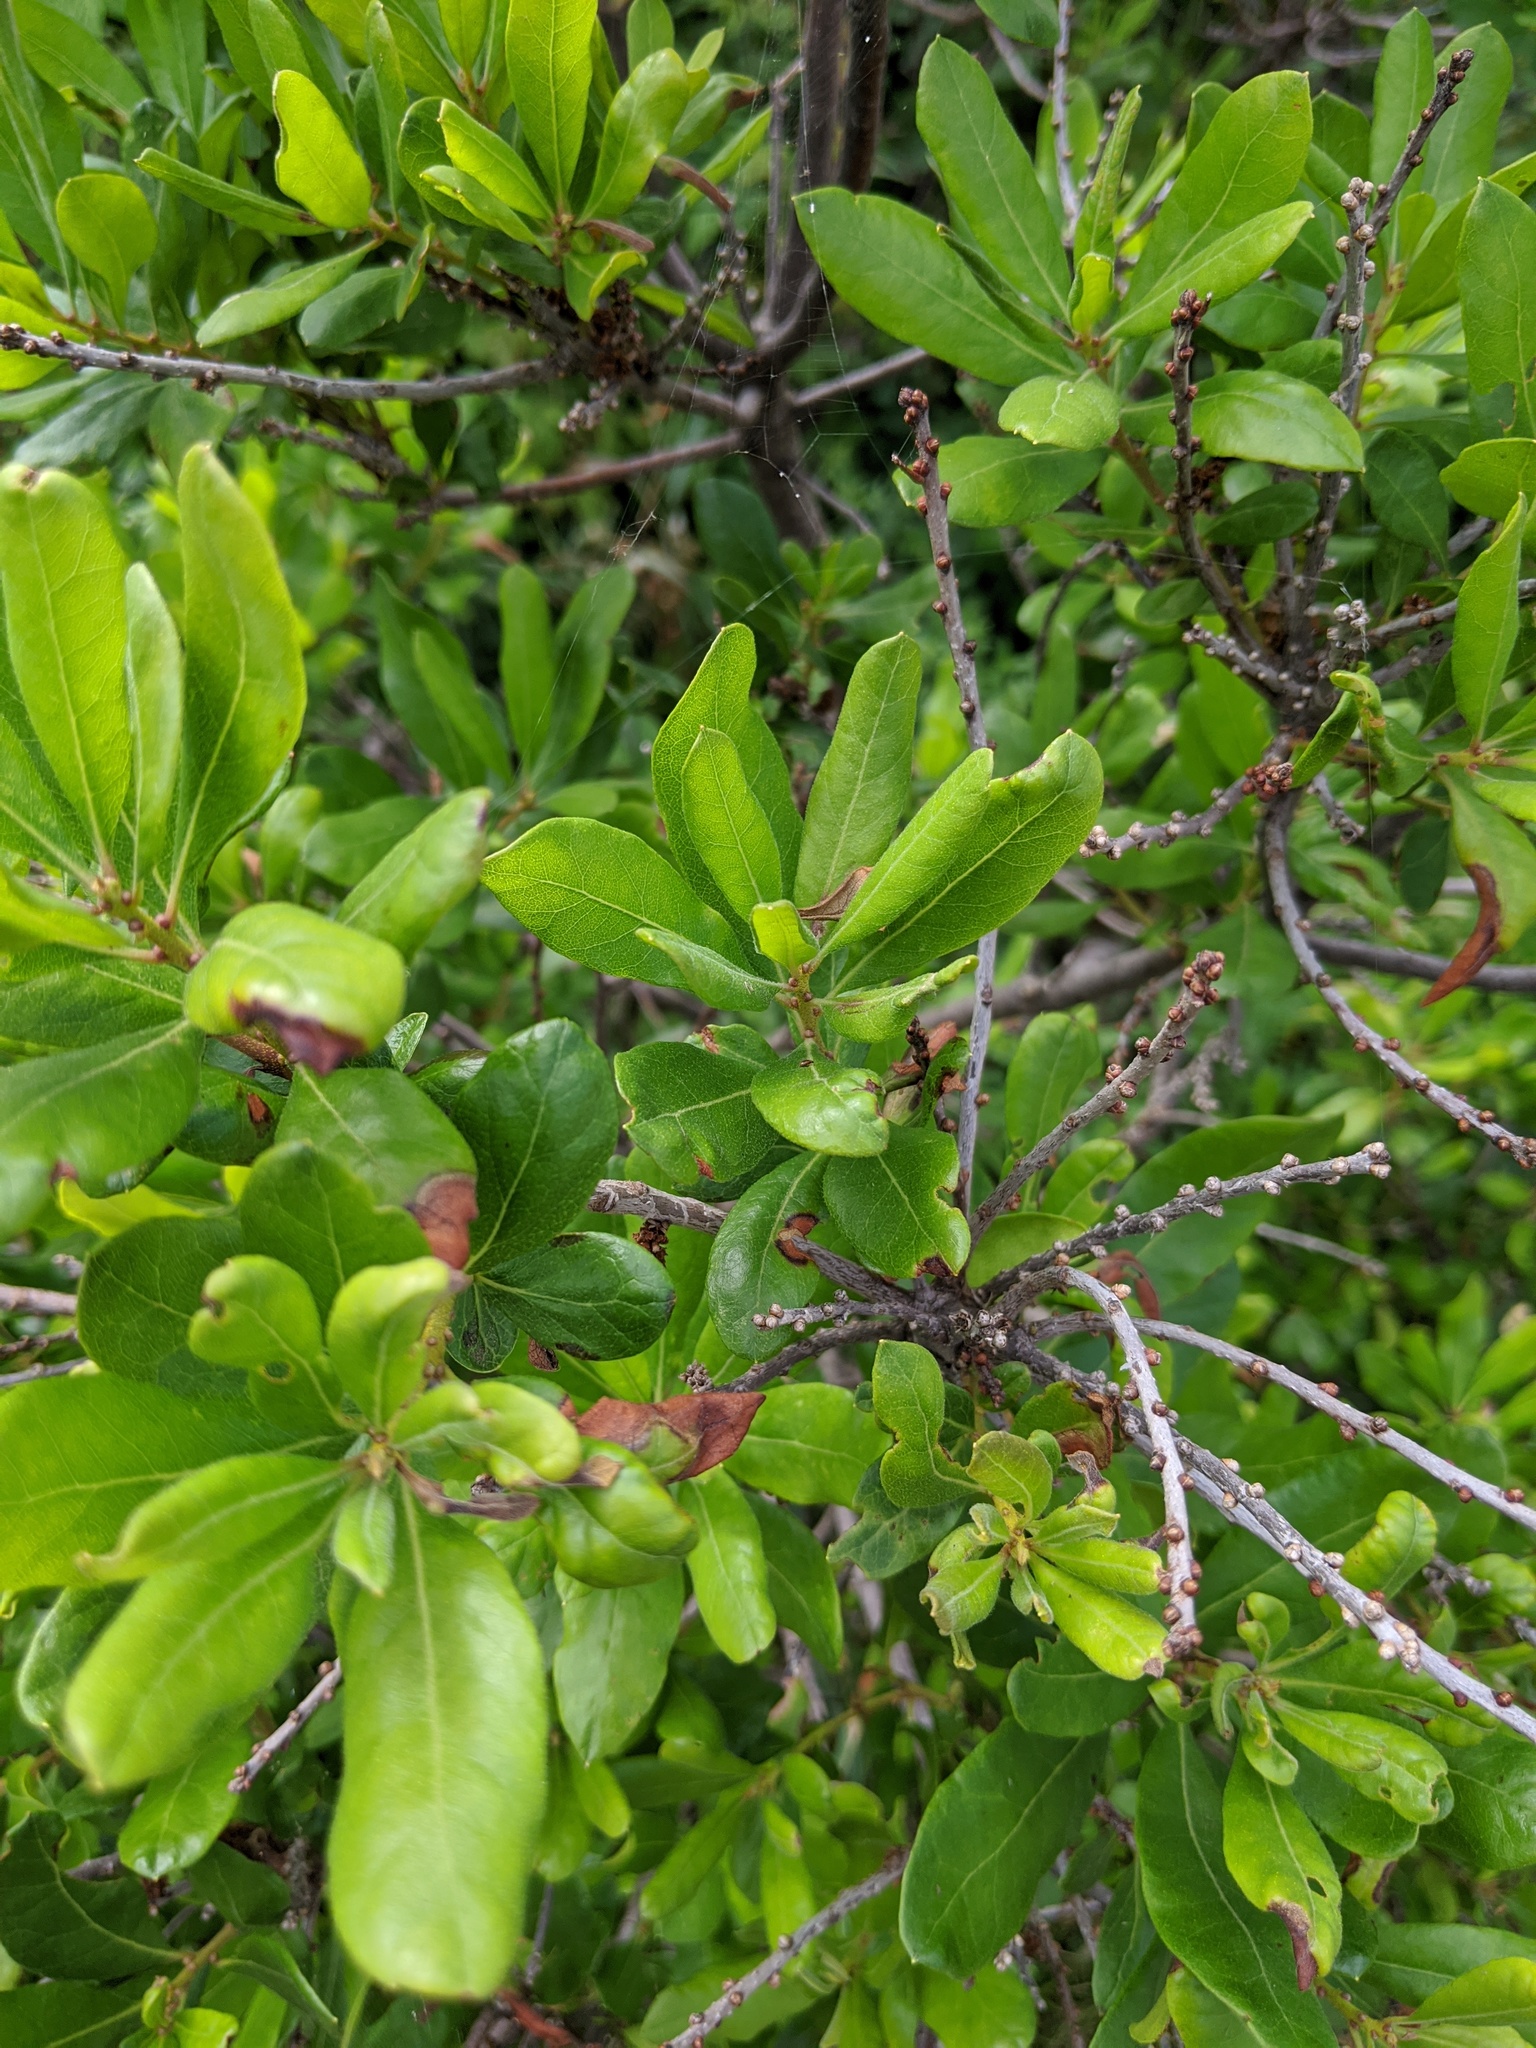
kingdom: Plantae
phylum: Tracheophyta
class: Magnoliopsida
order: Fagales
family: Myricaceae
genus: Morella
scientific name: Morella pensylvanica
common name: Northern bayberry
